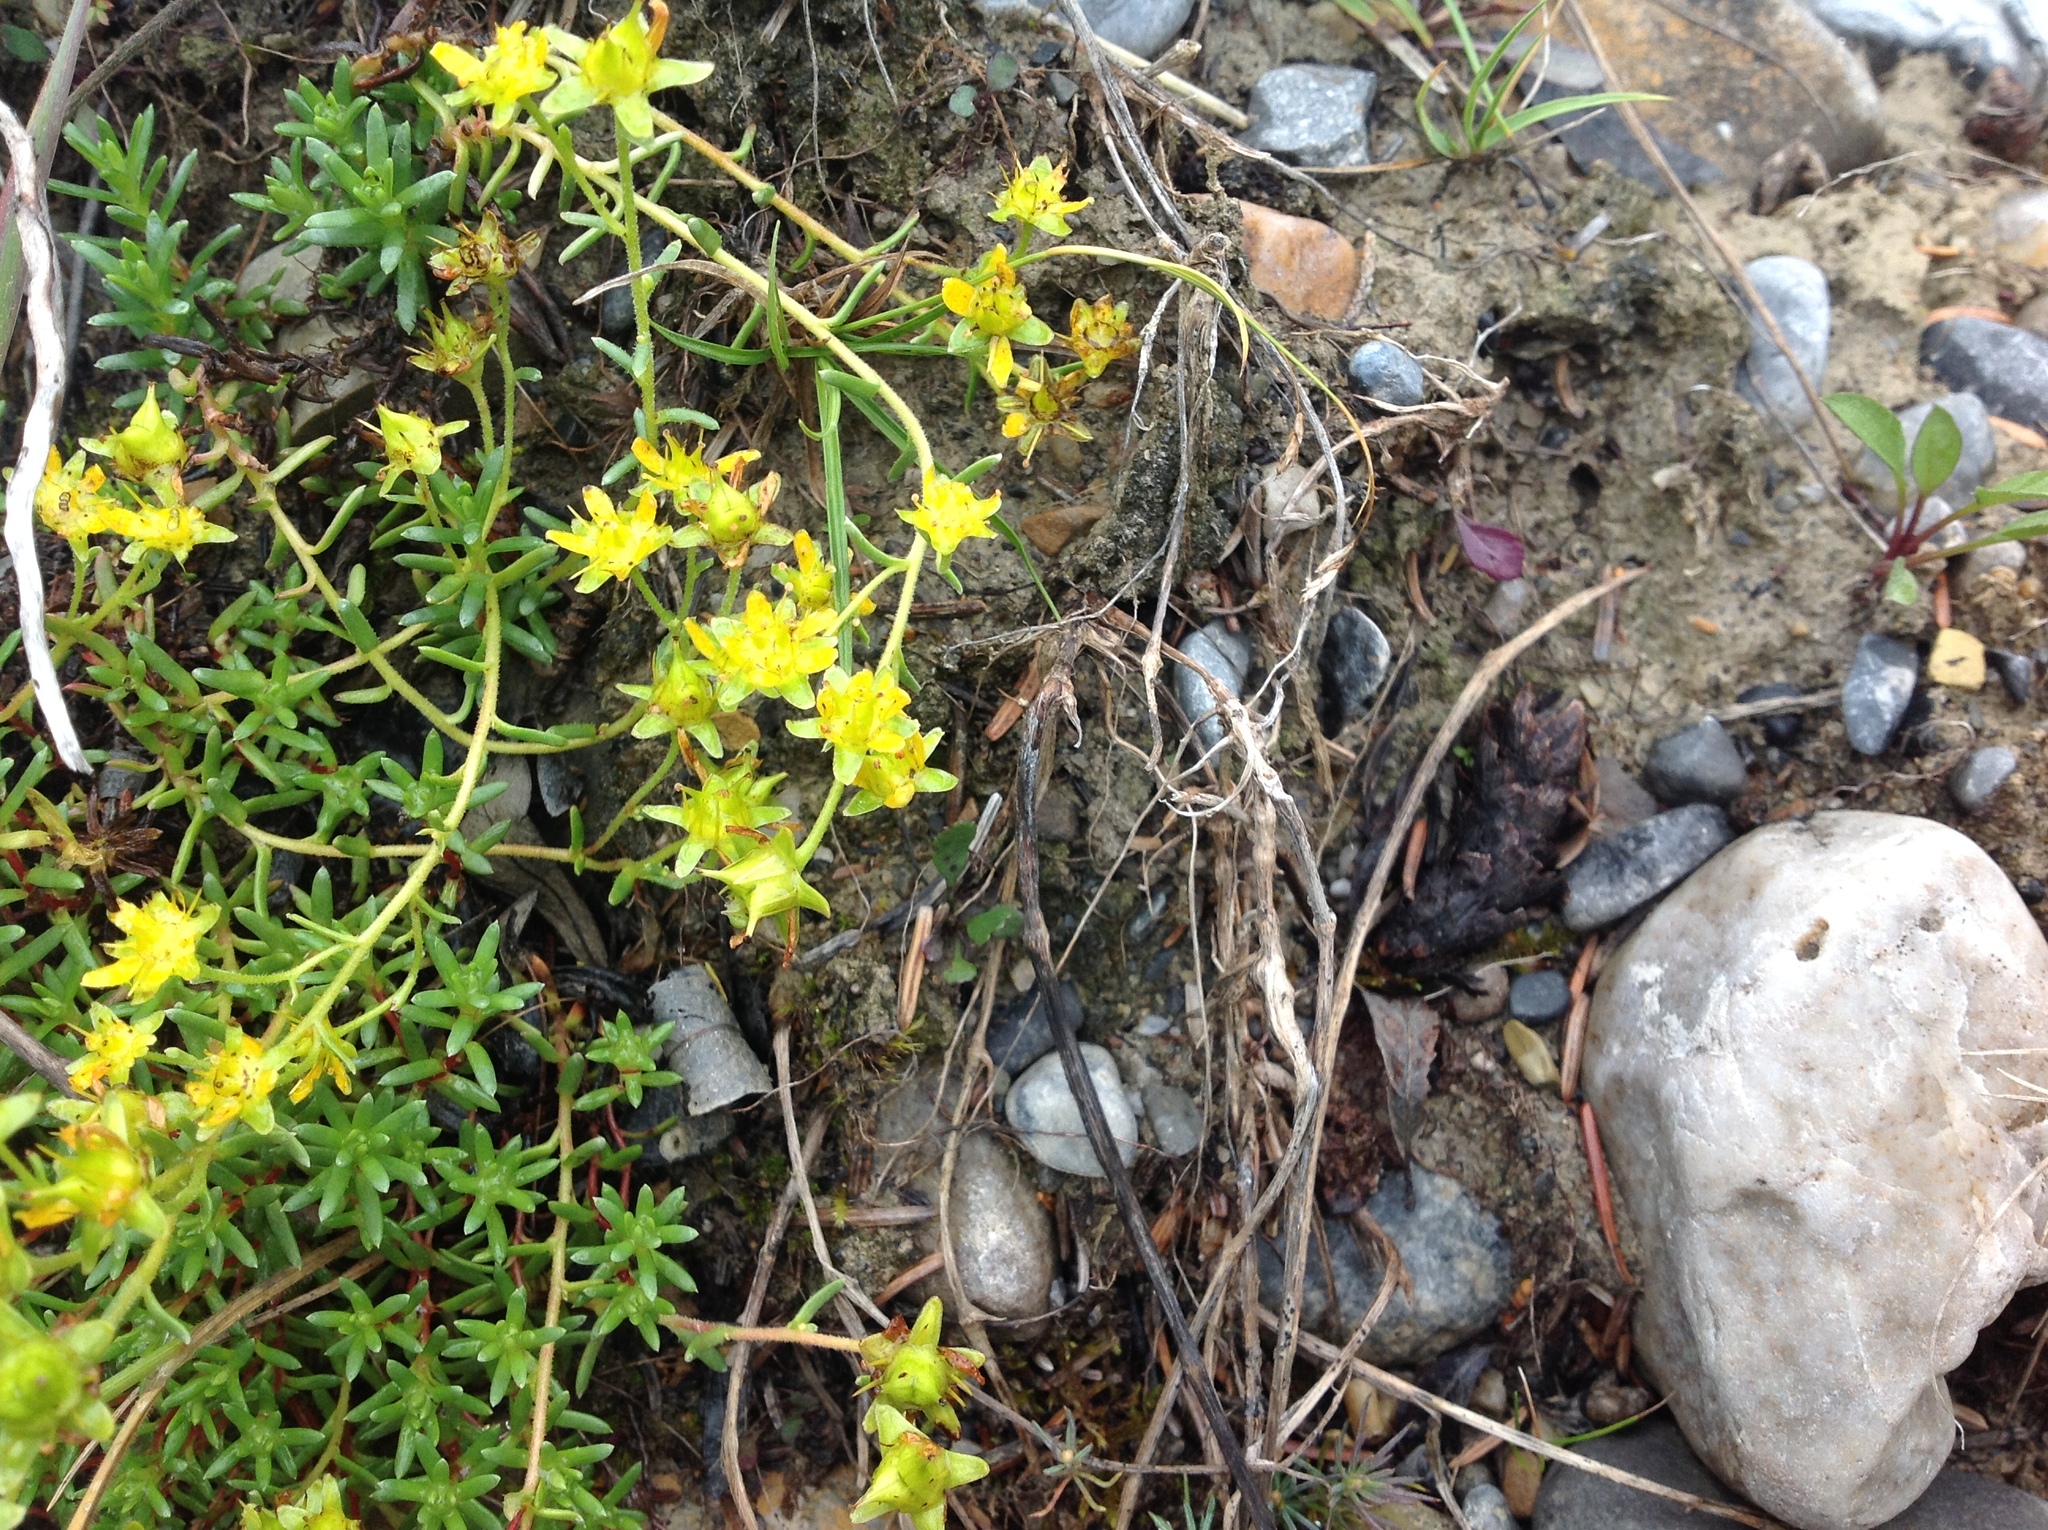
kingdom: Plantae
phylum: Tracheophyta
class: Magnoliopsida
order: Saxifragales
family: Saxifragaceae
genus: Saxifraga
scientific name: Saxifraga aizoides
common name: Yellow mountain saxifrage
